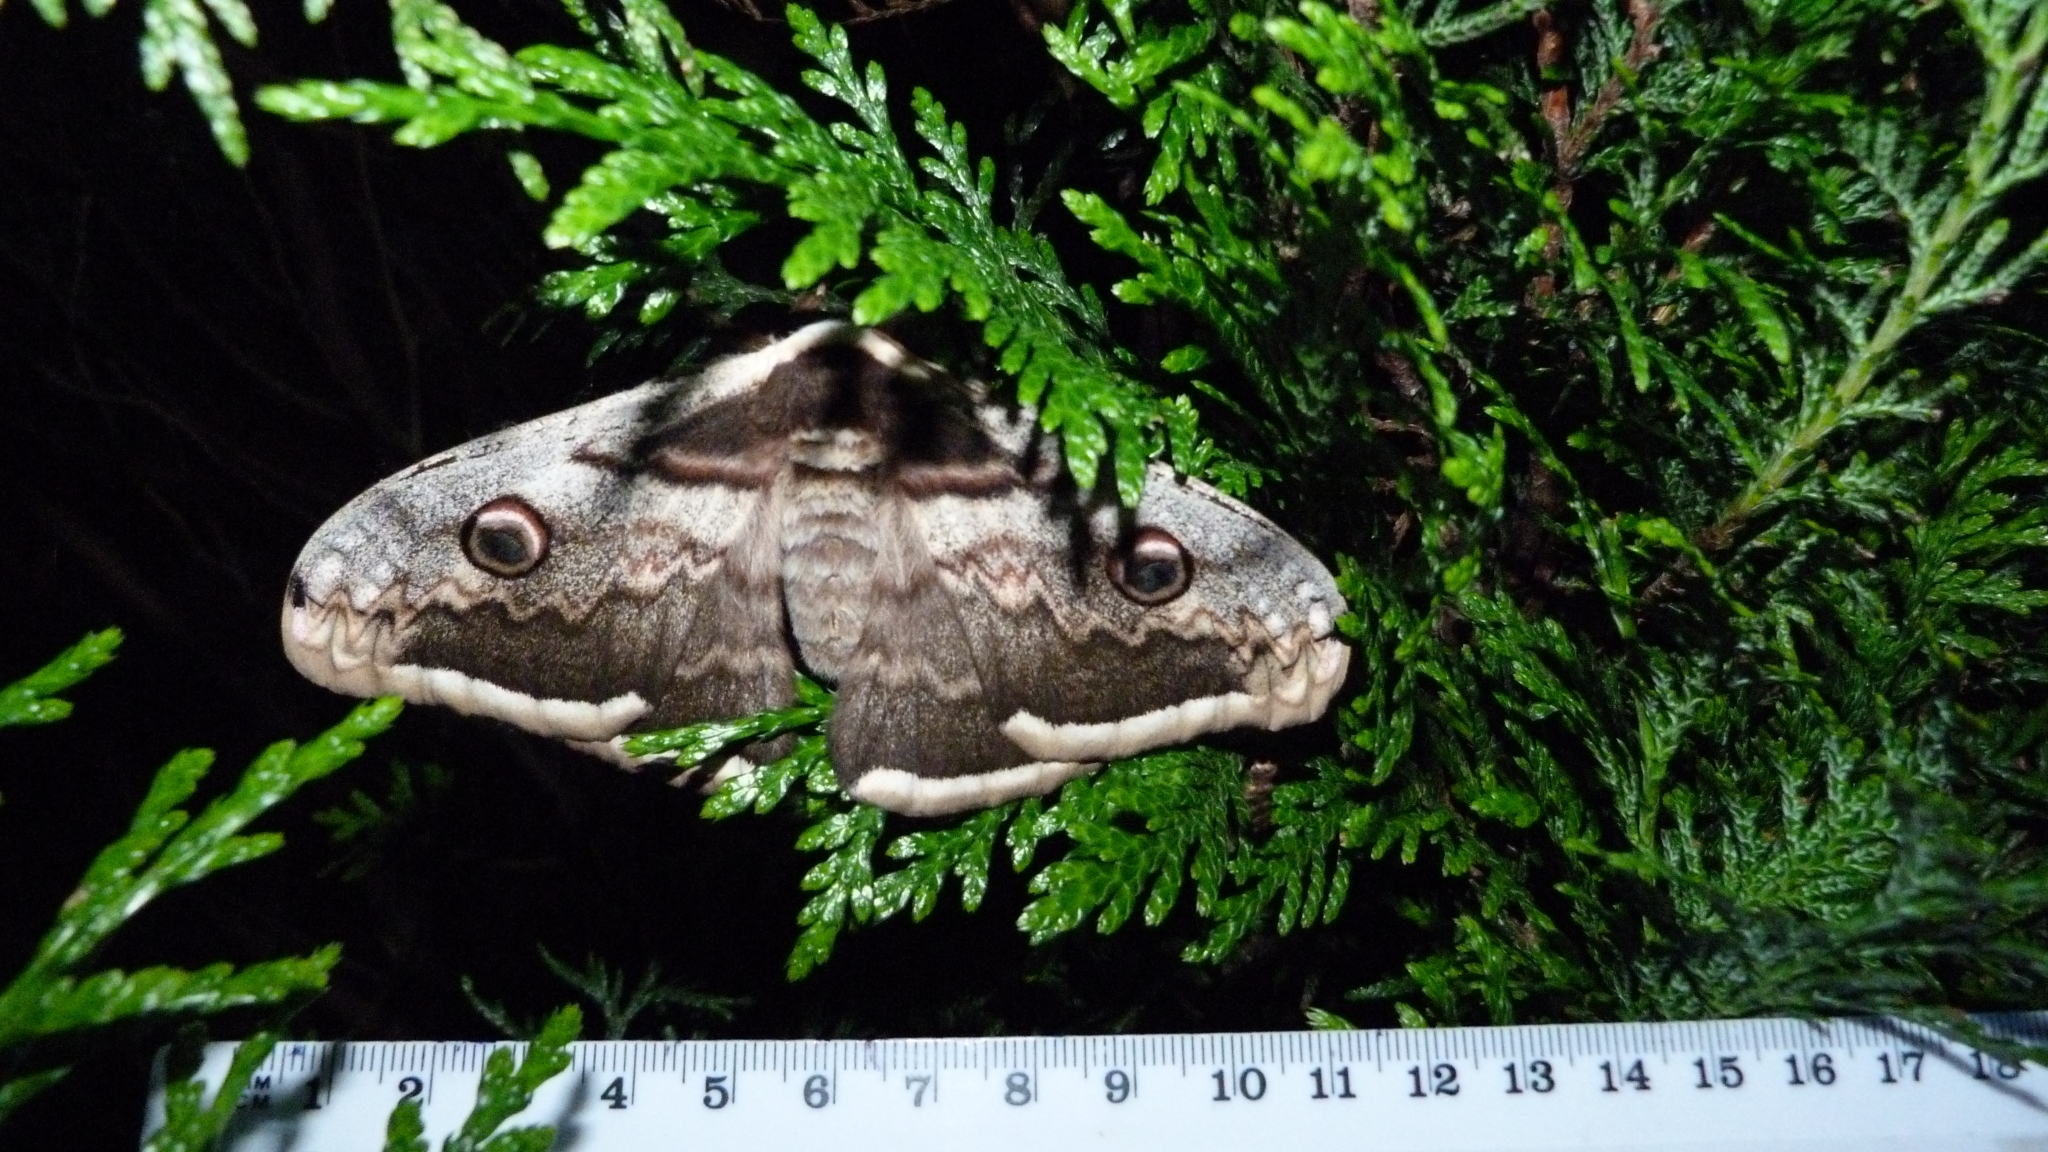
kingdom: Animalia
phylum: Arthropoda
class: Insecta
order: Lepidoptera
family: Saturniidae
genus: Saturnia
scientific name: Saturnia pyri
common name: Great peacock moth
